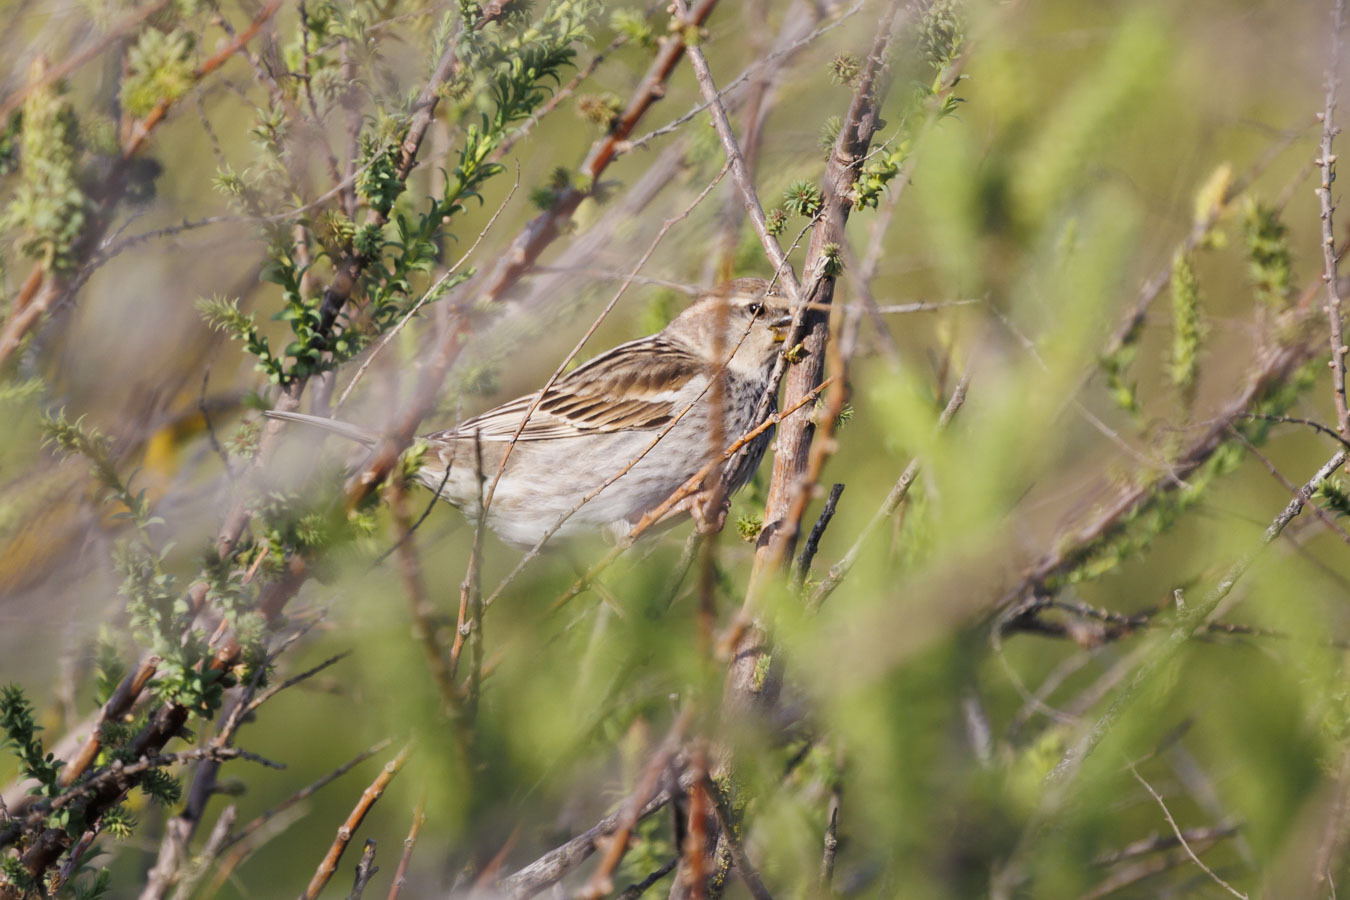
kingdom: Animalia
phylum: Chordata
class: Aves
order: Passeriformes
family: Passeridae
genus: Passer
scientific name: Passer hispaniolensis
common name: Spanish sparrow
